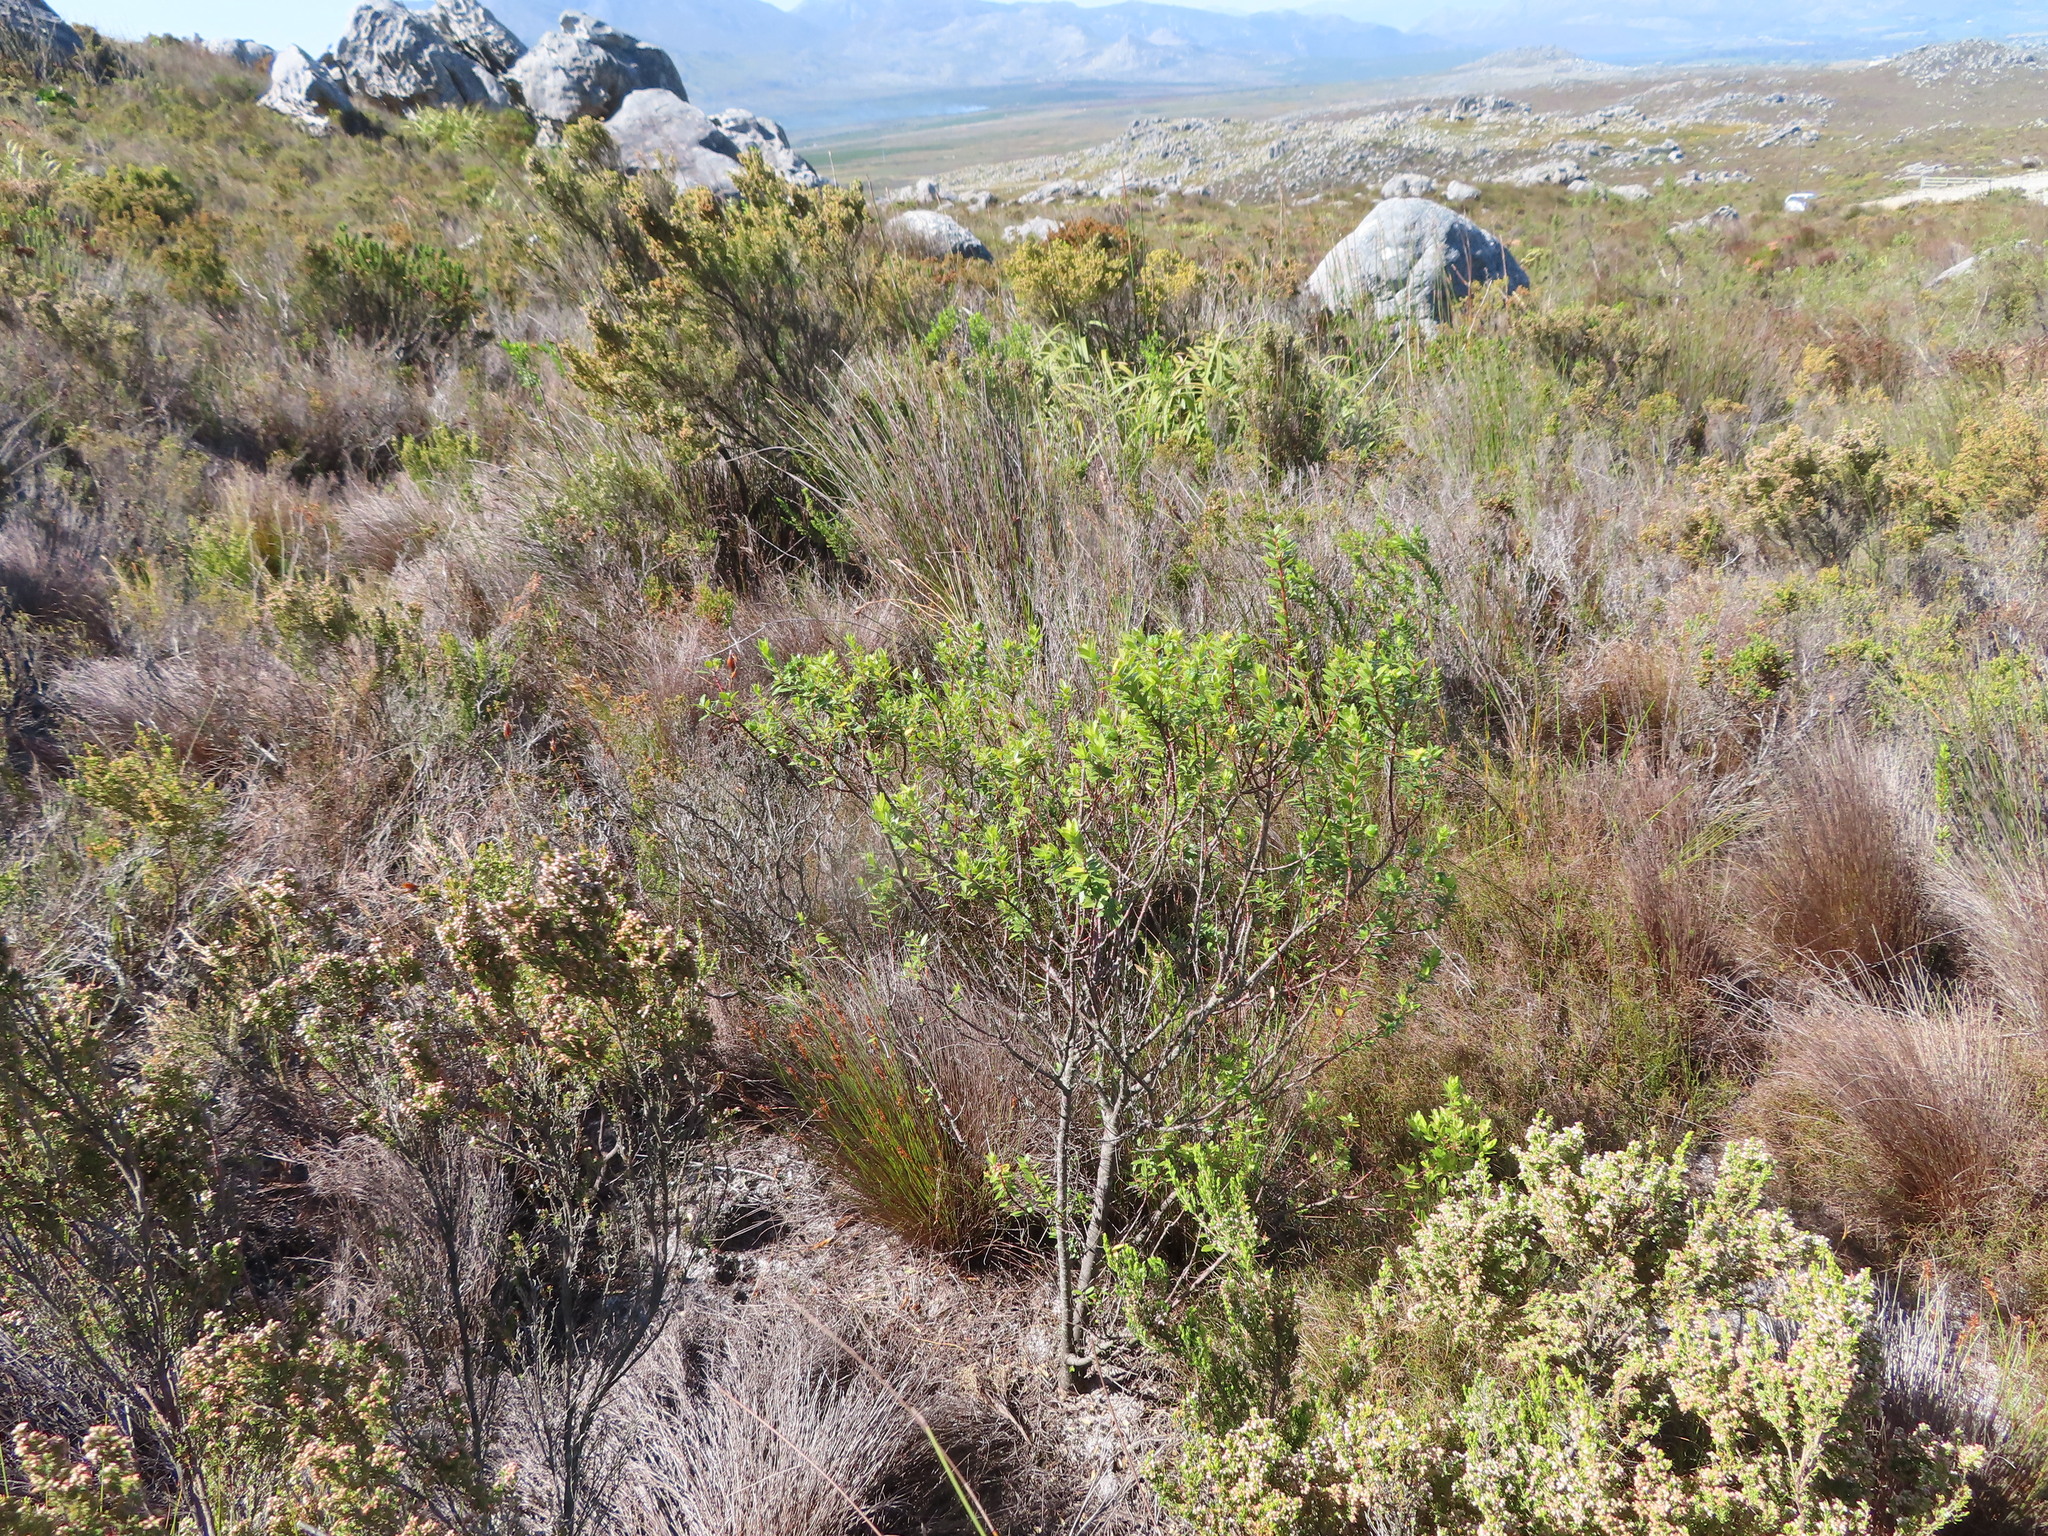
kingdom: Plantae
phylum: Tracheophyta
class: Magnoliopsida
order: Sapindales
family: Rutaceae
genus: Agathosma
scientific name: Agathosma ovata
